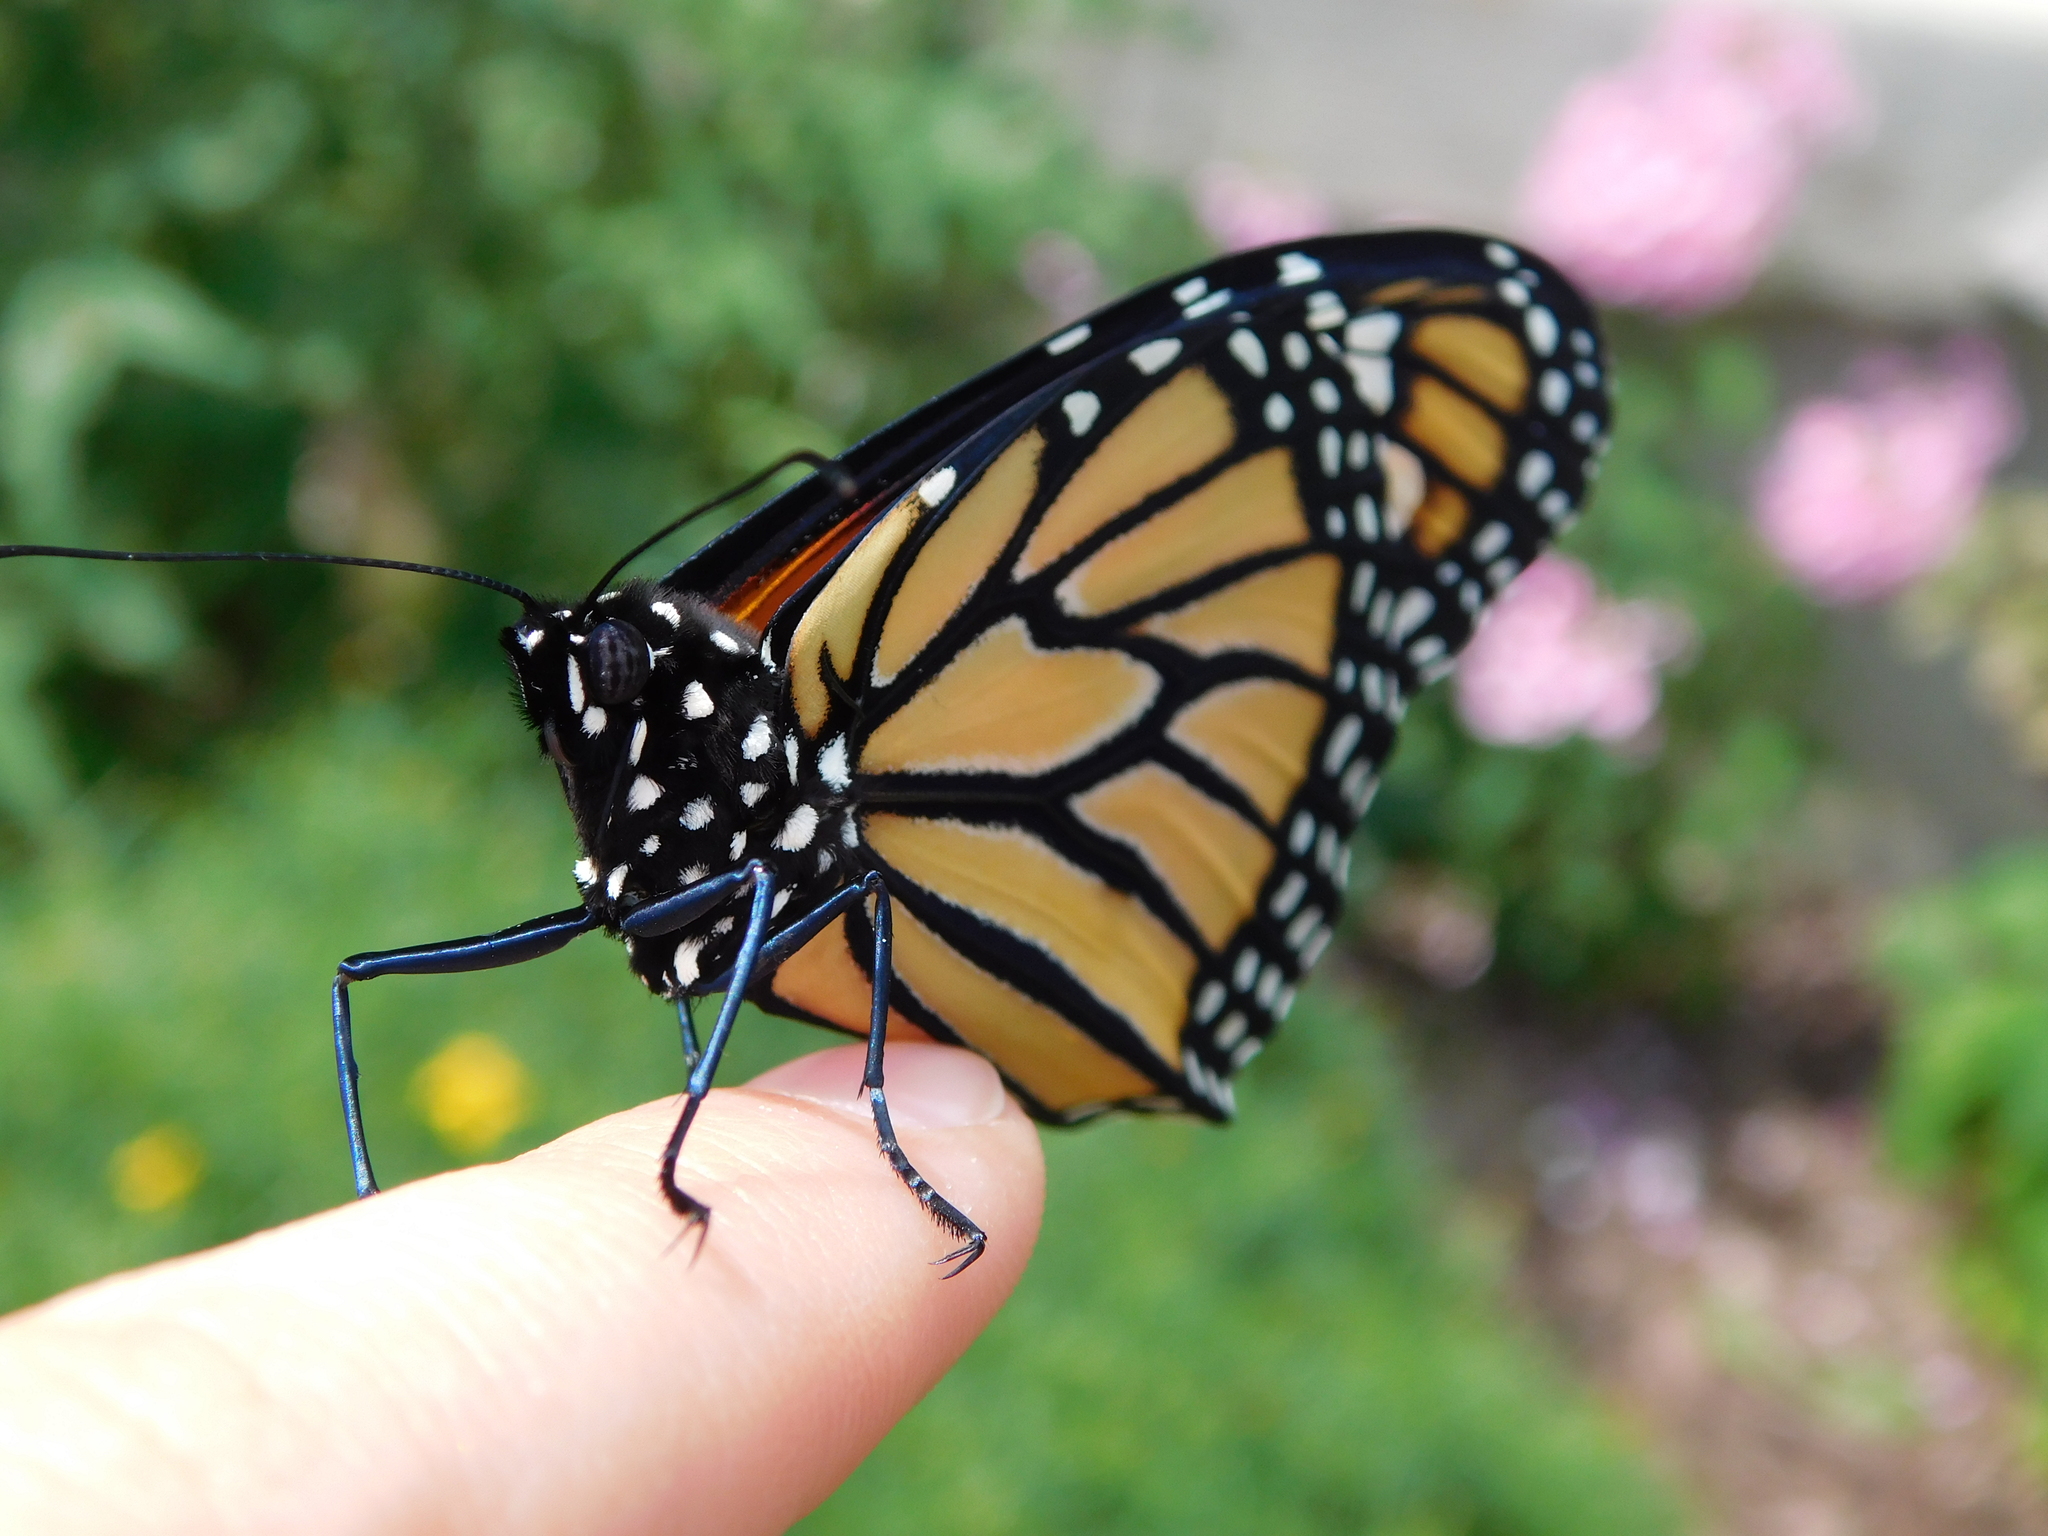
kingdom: Animalia
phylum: Arthropoda
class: Insecta
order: Lepidoptera
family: Nymphalidae
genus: Danaus
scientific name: Danaus plexippus
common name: Monarch
